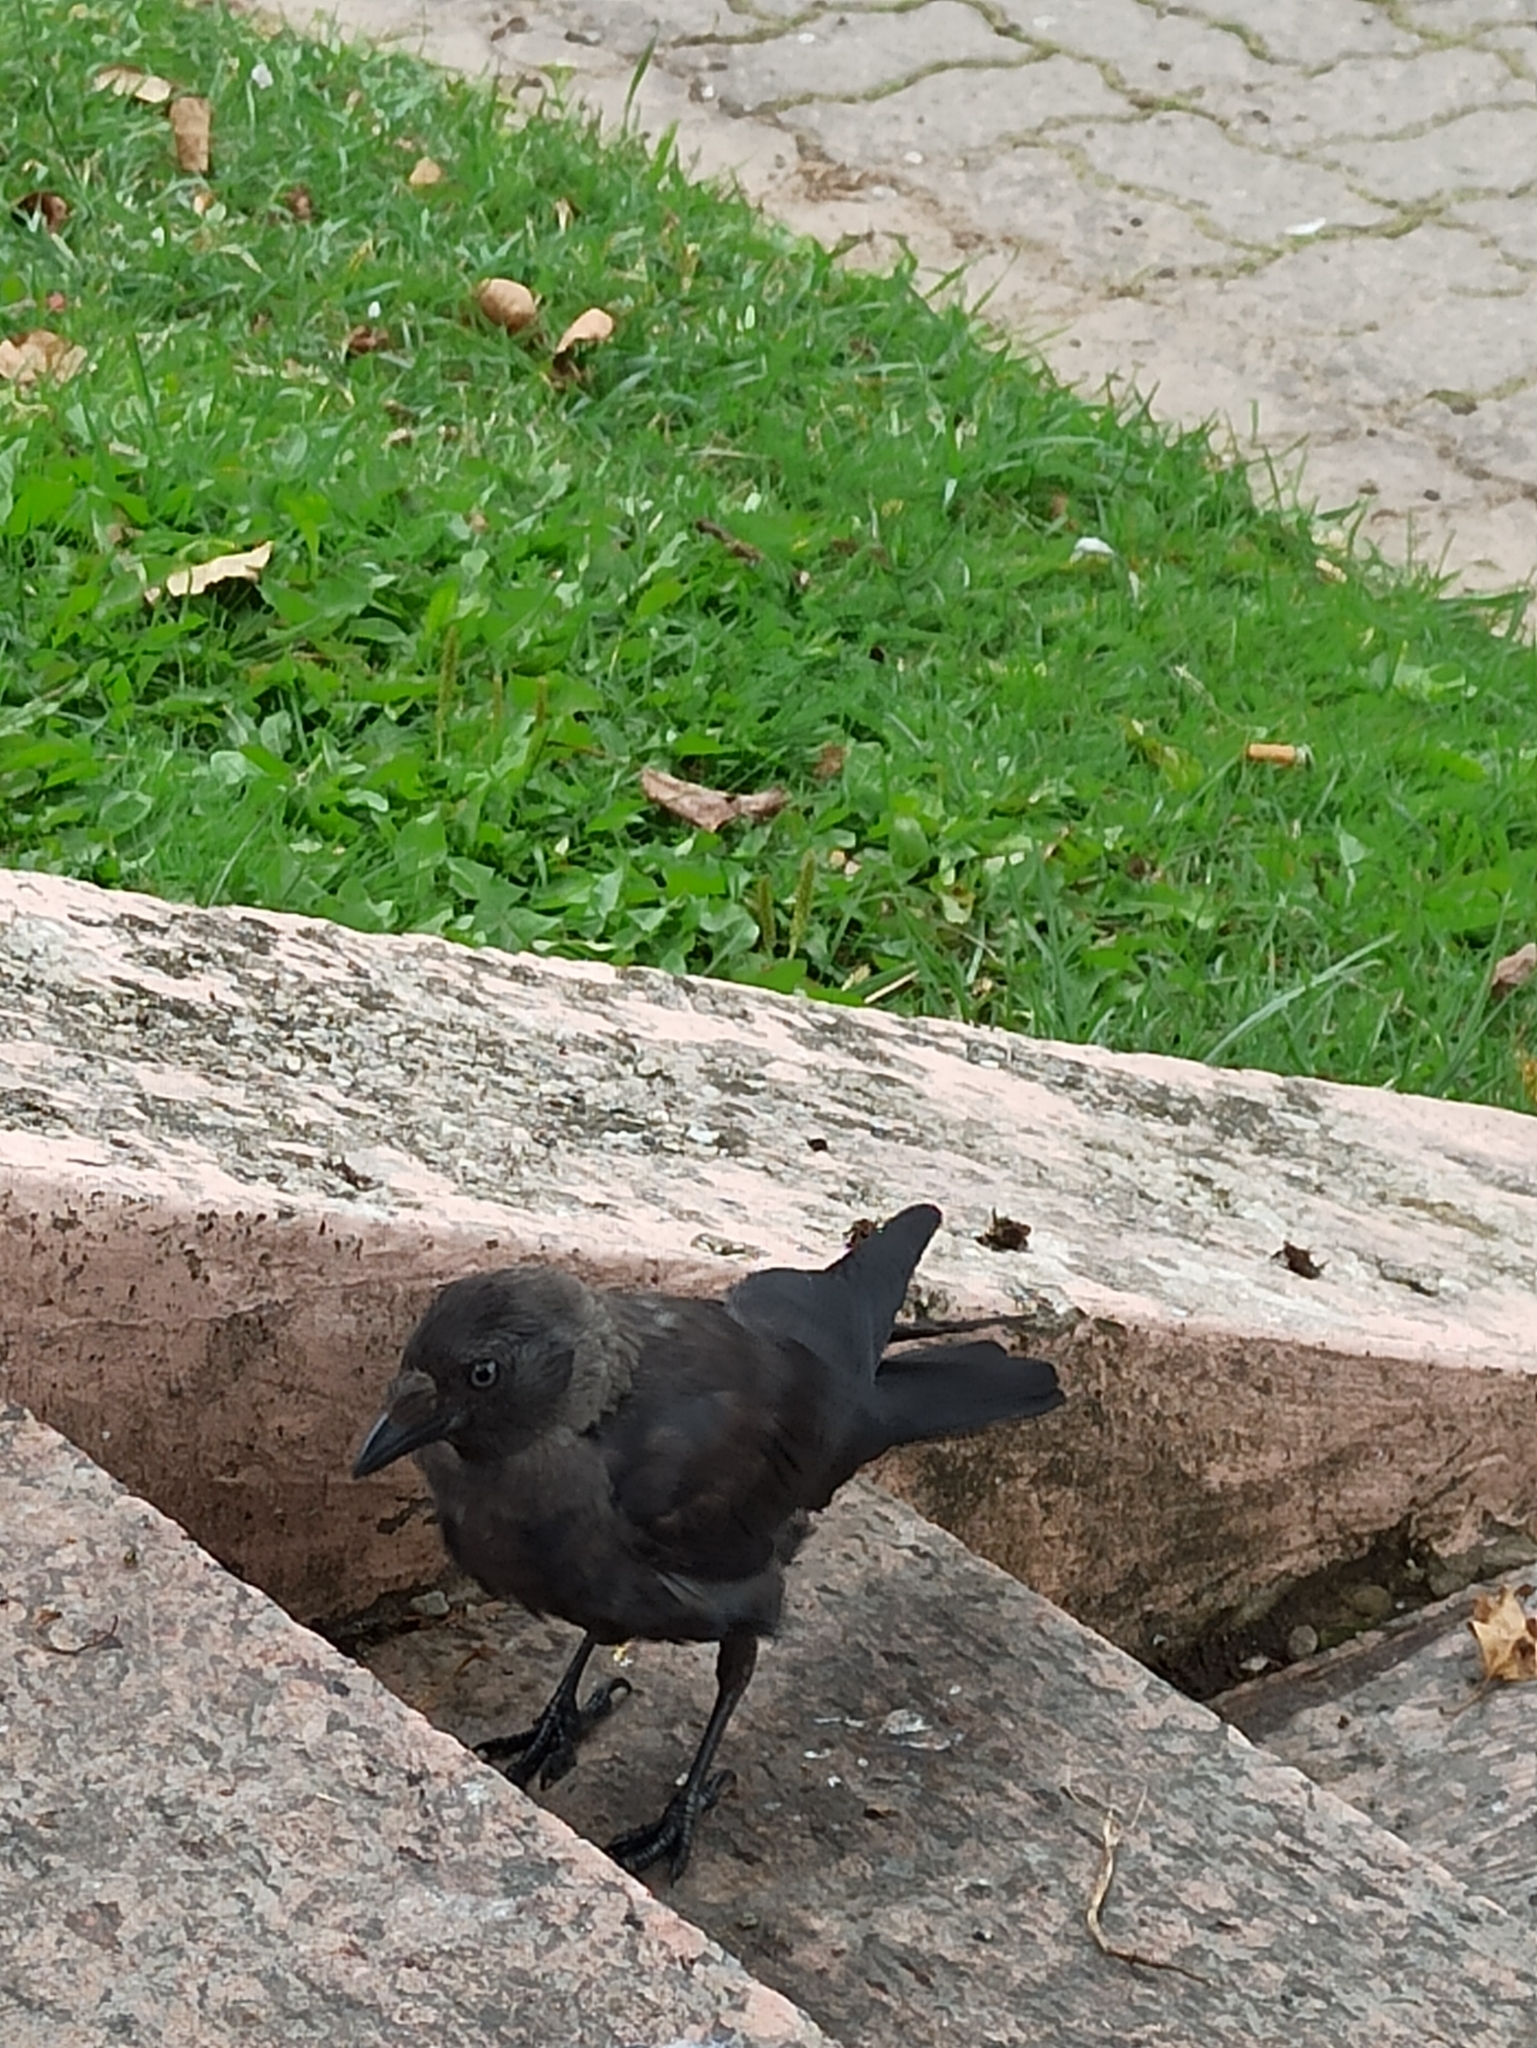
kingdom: Animalia
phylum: Chordata
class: Aves
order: Passeriformes
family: Corvidae
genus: Coloeus
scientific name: Coloeus monedula
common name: Western jackdaw
